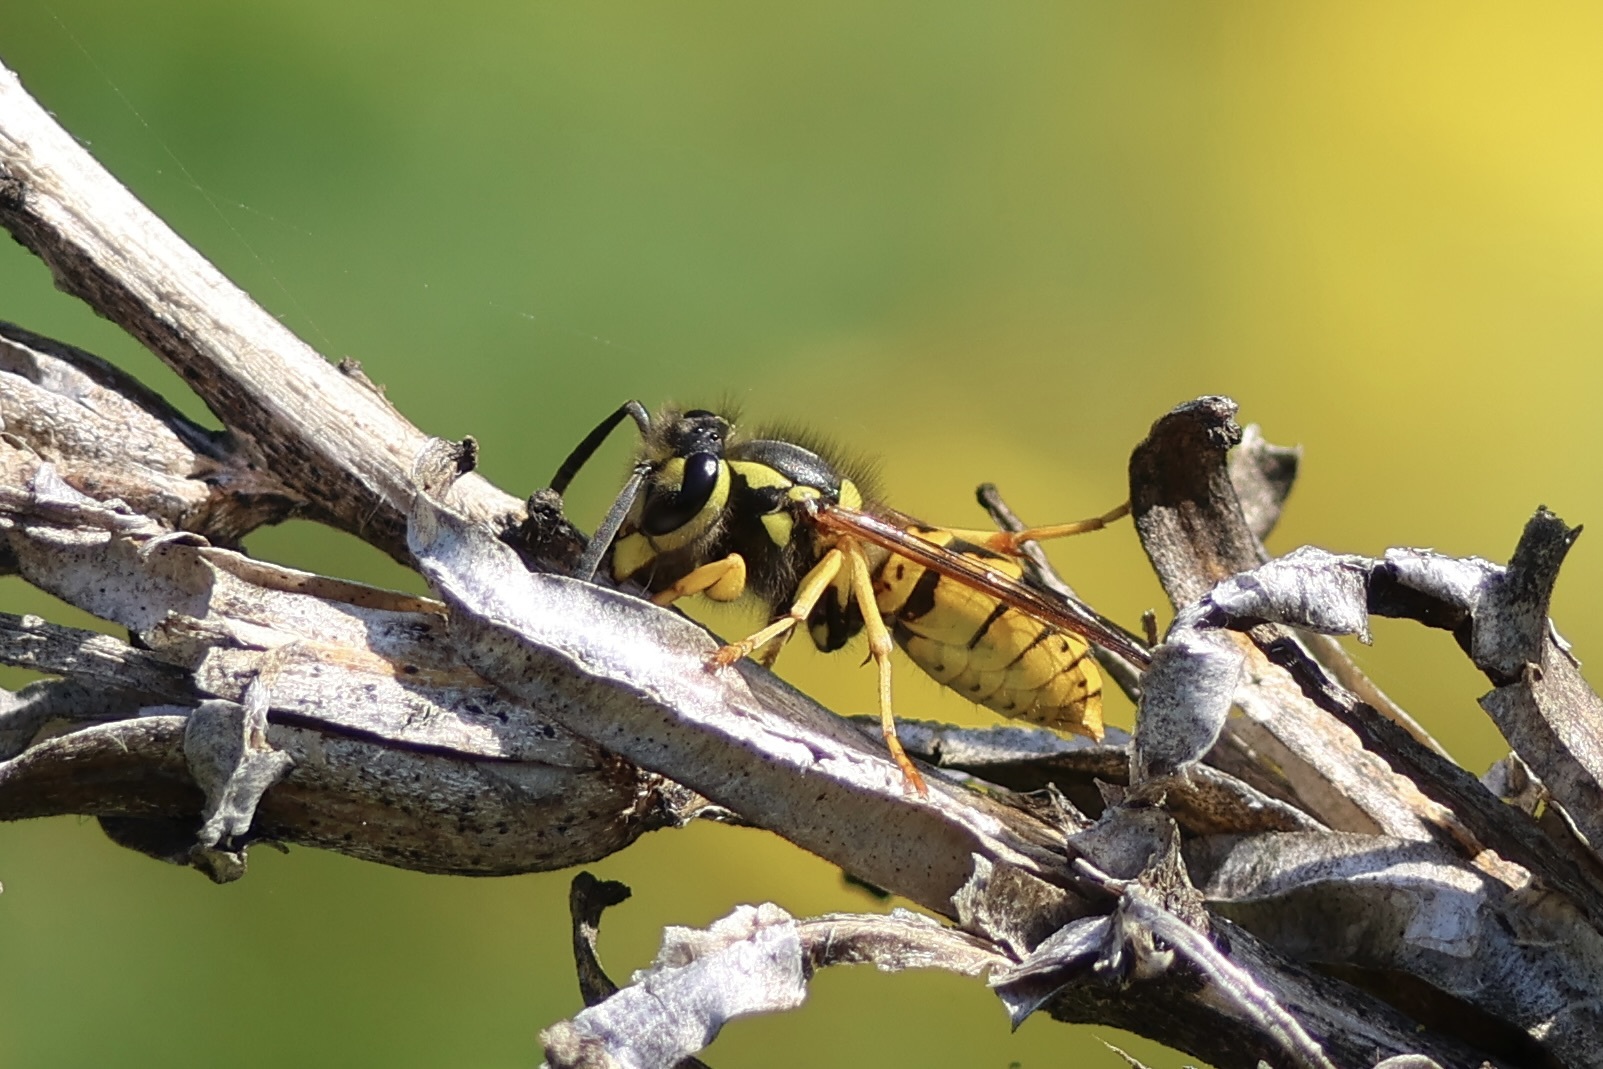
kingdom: Animalia
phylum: Arthropoda
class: Insecta
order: Hymenoptera
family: Vespidae
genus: Vespula
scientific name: Vespula germanica
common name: German wasp
